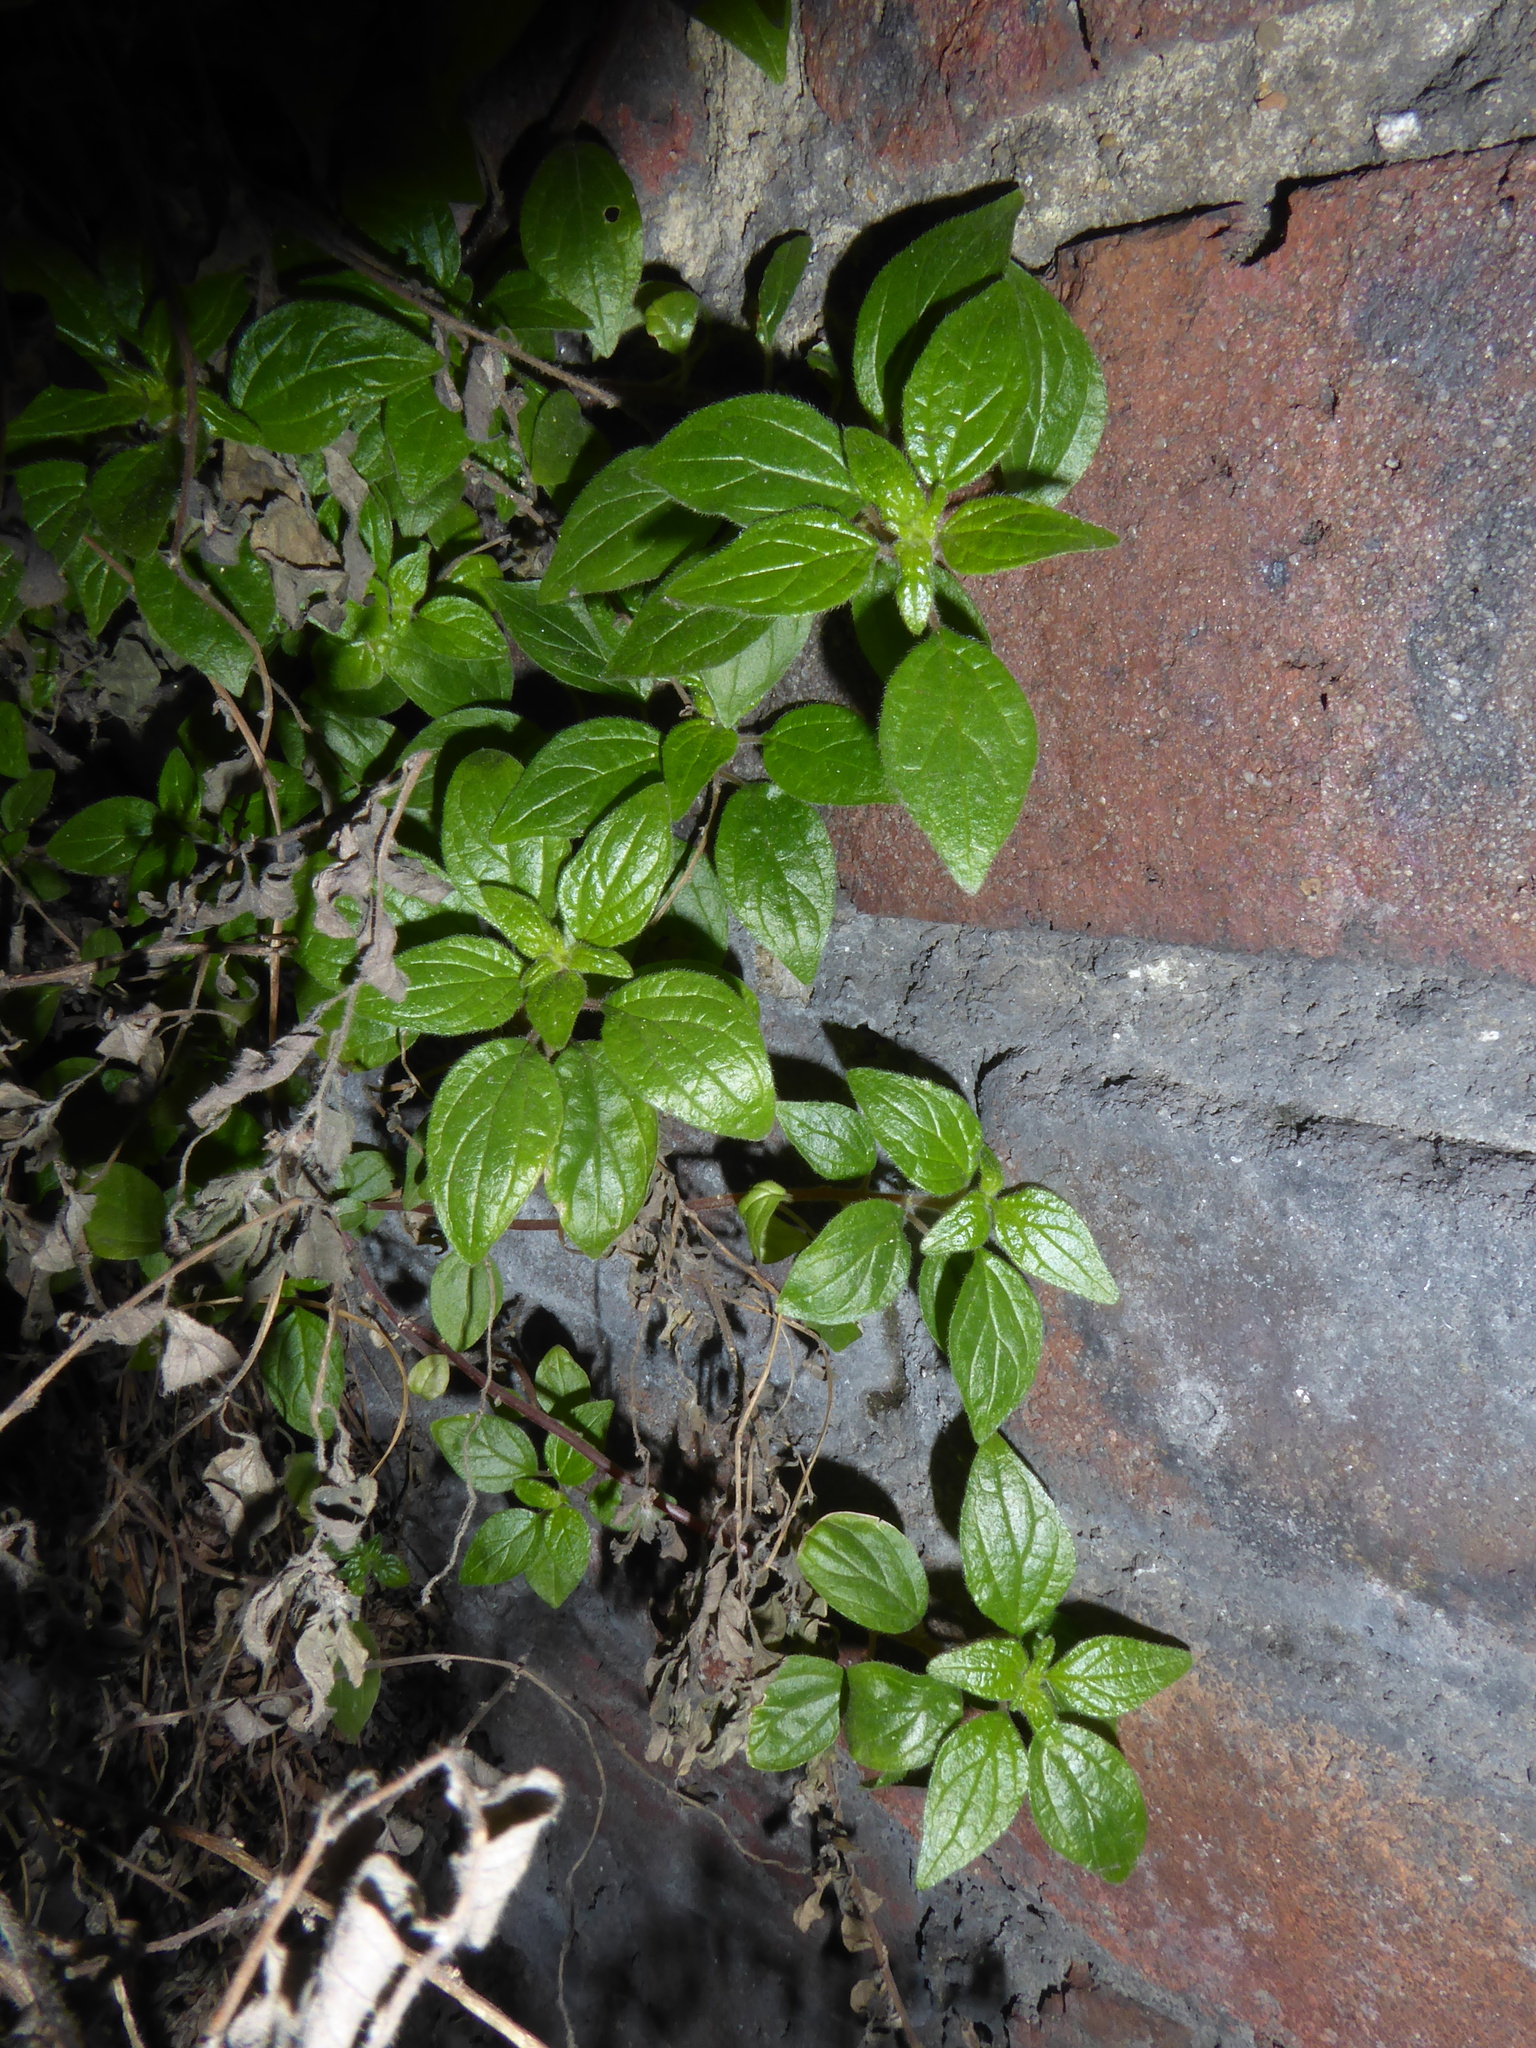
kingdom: Plantae
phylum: Tracheophyta
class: Magnoliopsida
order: Rosales
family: Urticaceae
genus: Parietaria
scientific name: Parietaria judaica
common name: Pellitory-of-the-wall
